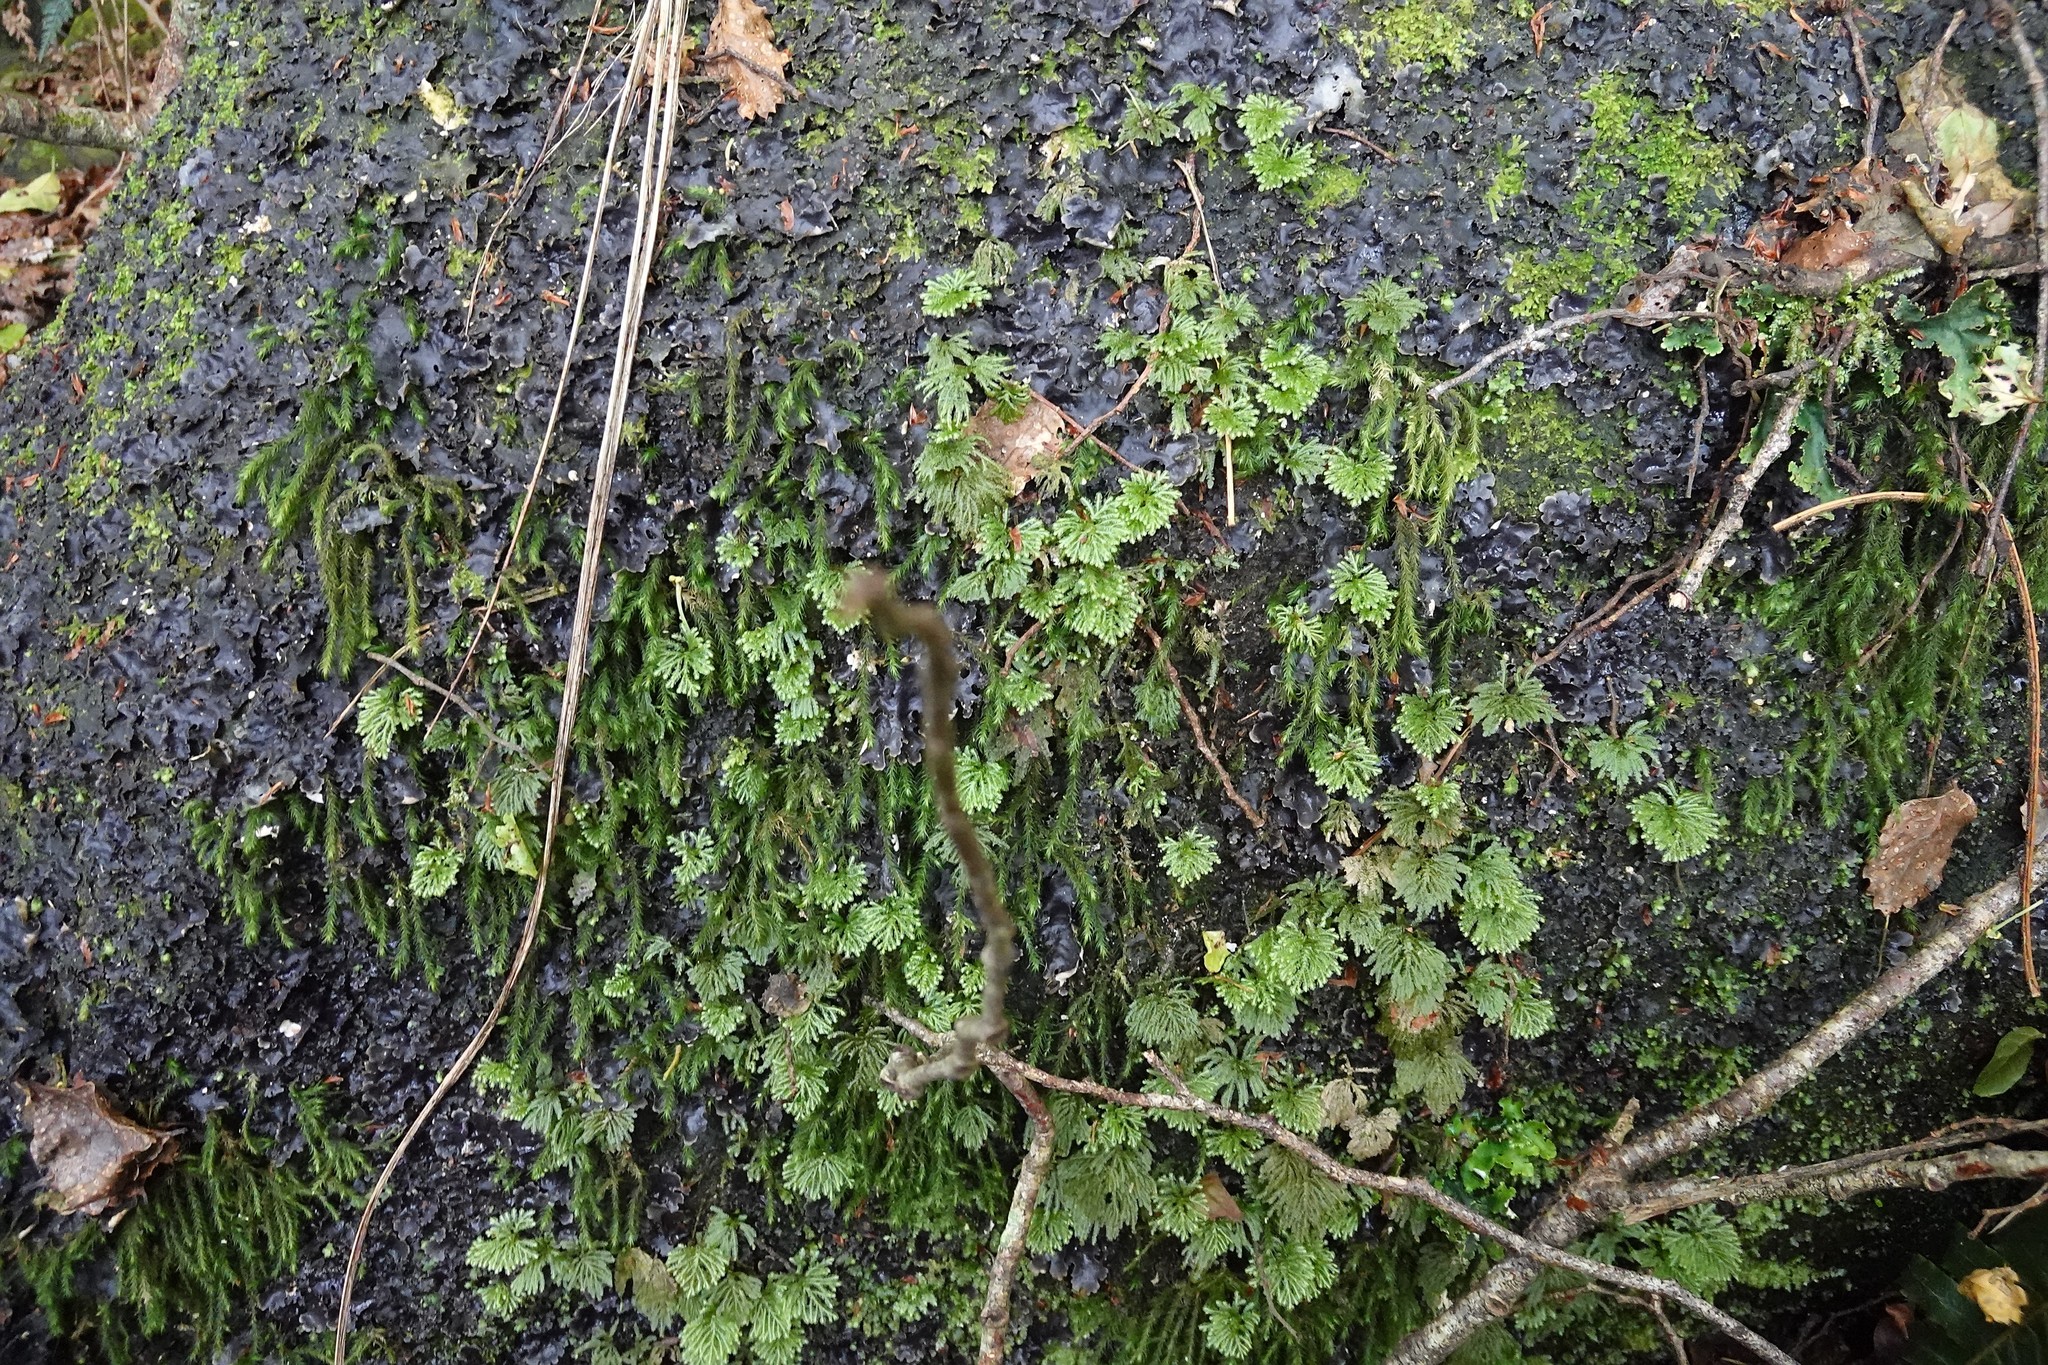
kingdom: Plantae
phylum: Bryophyta
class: Bryopsida
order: Hypnales
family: Neckeraceae
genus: Echinodiopsis
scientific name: Echinodiopsis hispida
